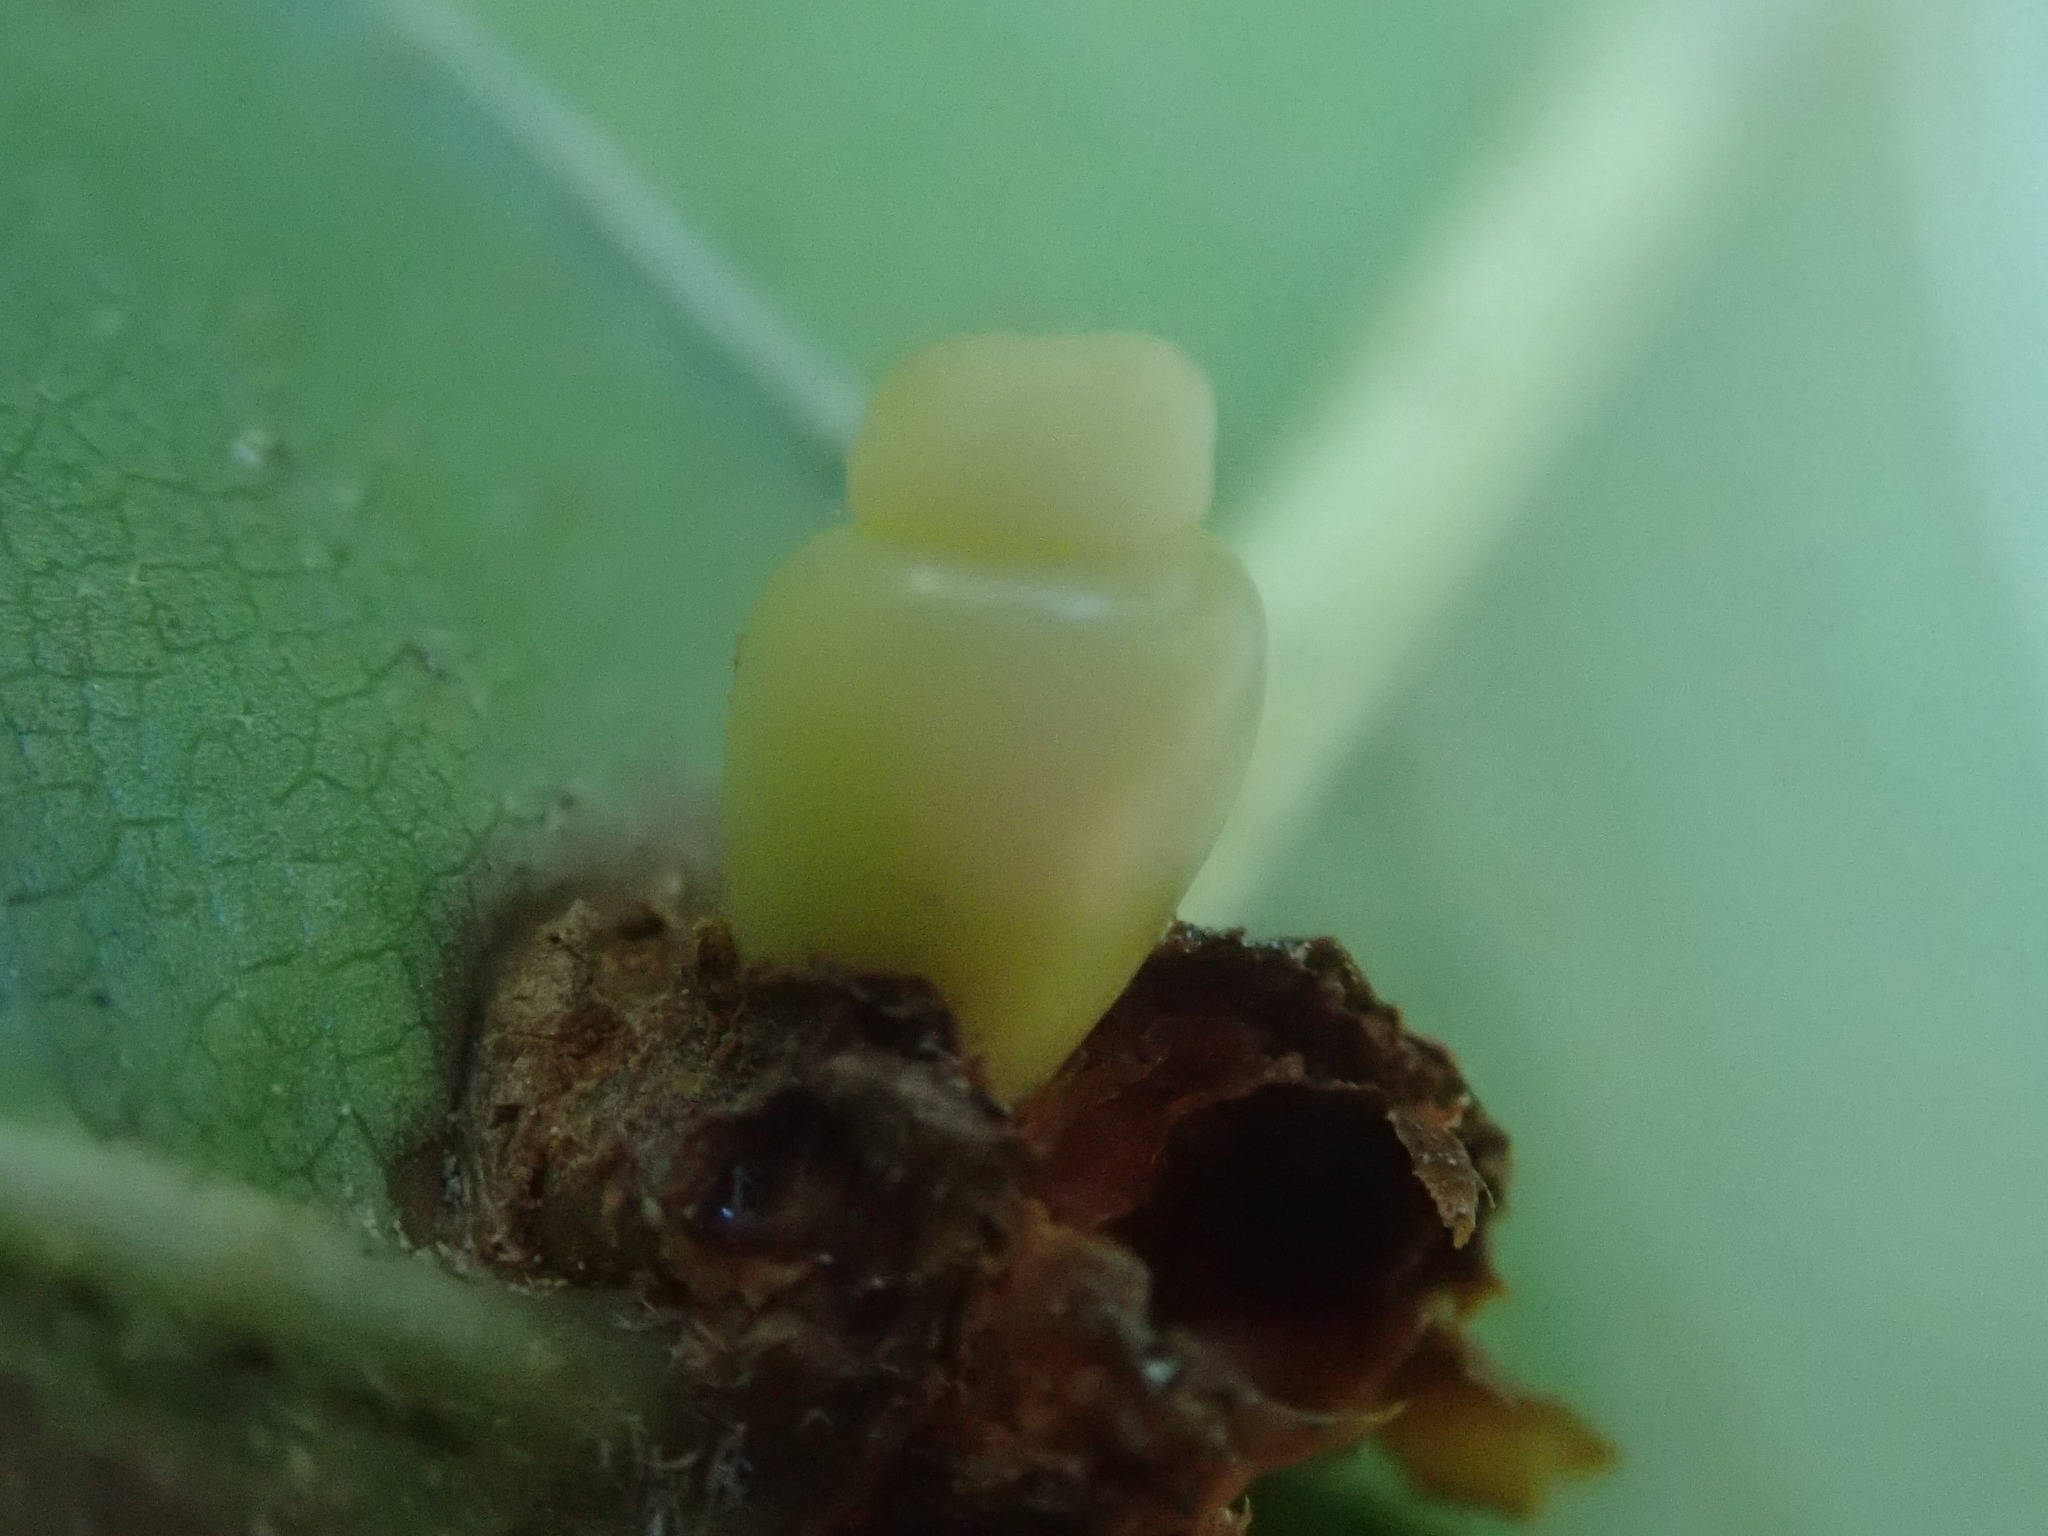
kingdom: Animalia
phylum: Arthropoda
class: Insecta
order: Hymenoptera
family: Cynipidae
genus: Kokkocynips
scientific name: Kokkocynips decidua
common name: Oak wheat gall
